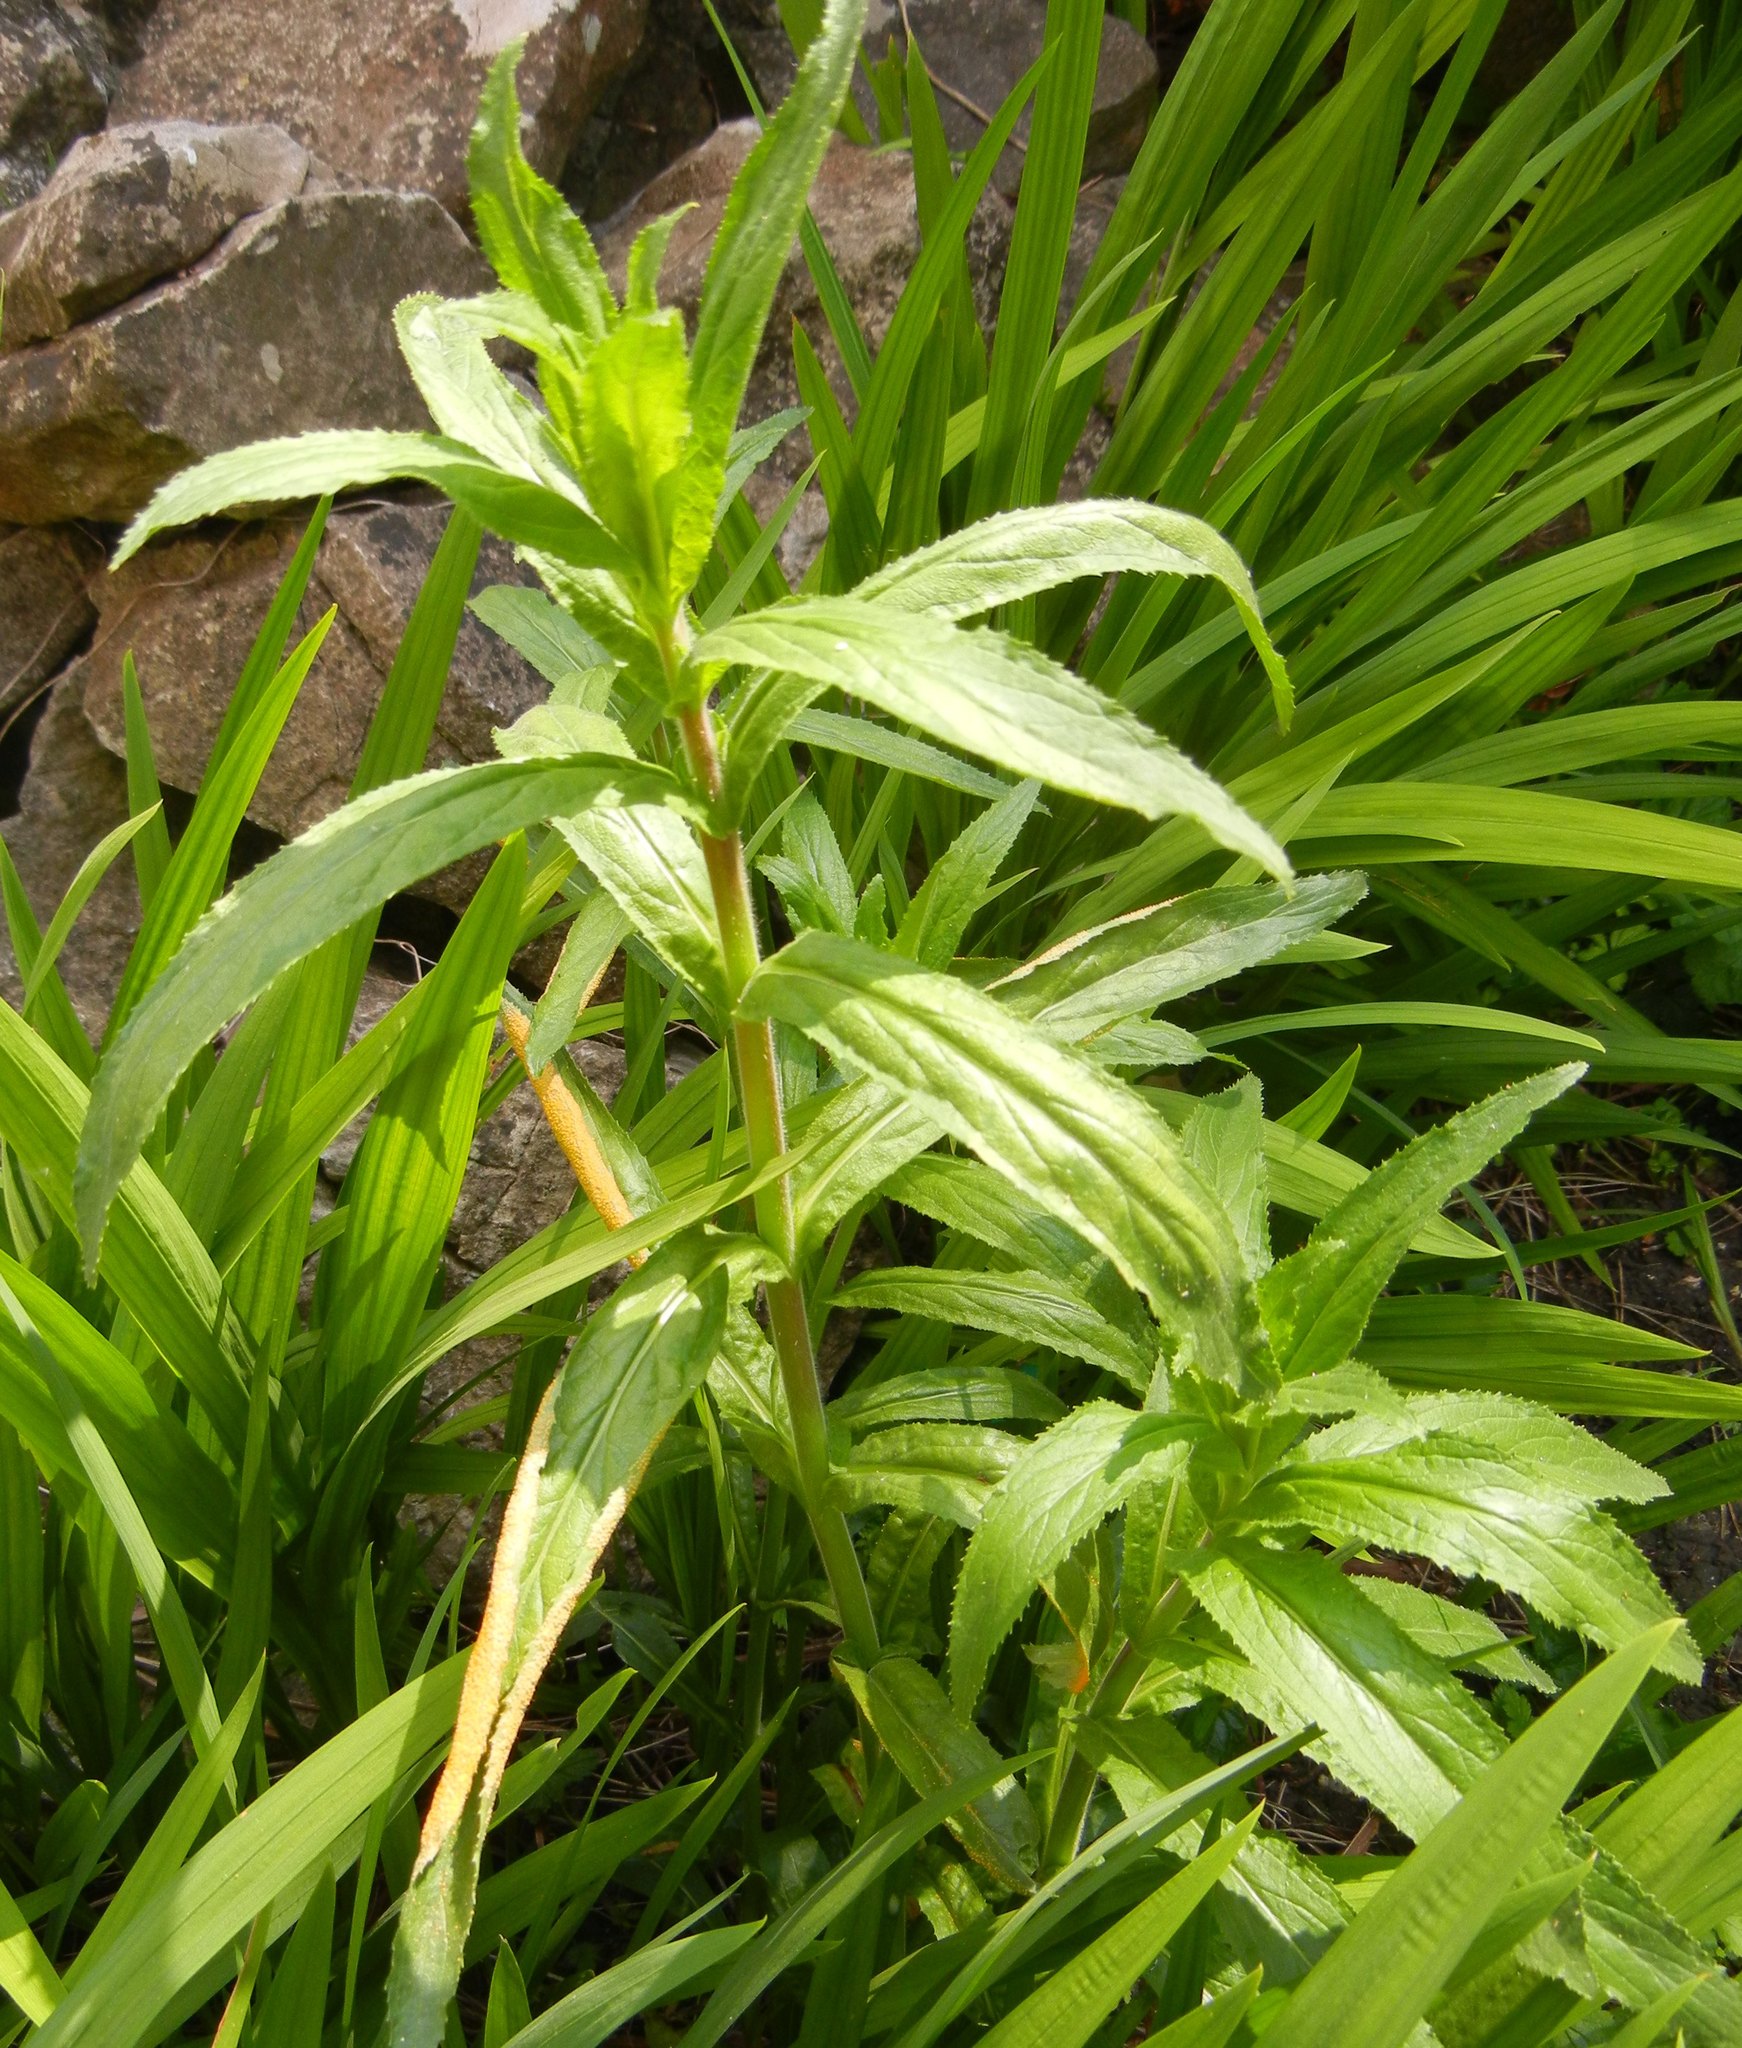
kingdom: Plantae
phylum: Tracheophyta
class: Magnoliopsida
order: Myrtales
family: Onagraceae
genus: Epilobium
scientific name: Epilobium hirsutum
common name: Great willowherb
